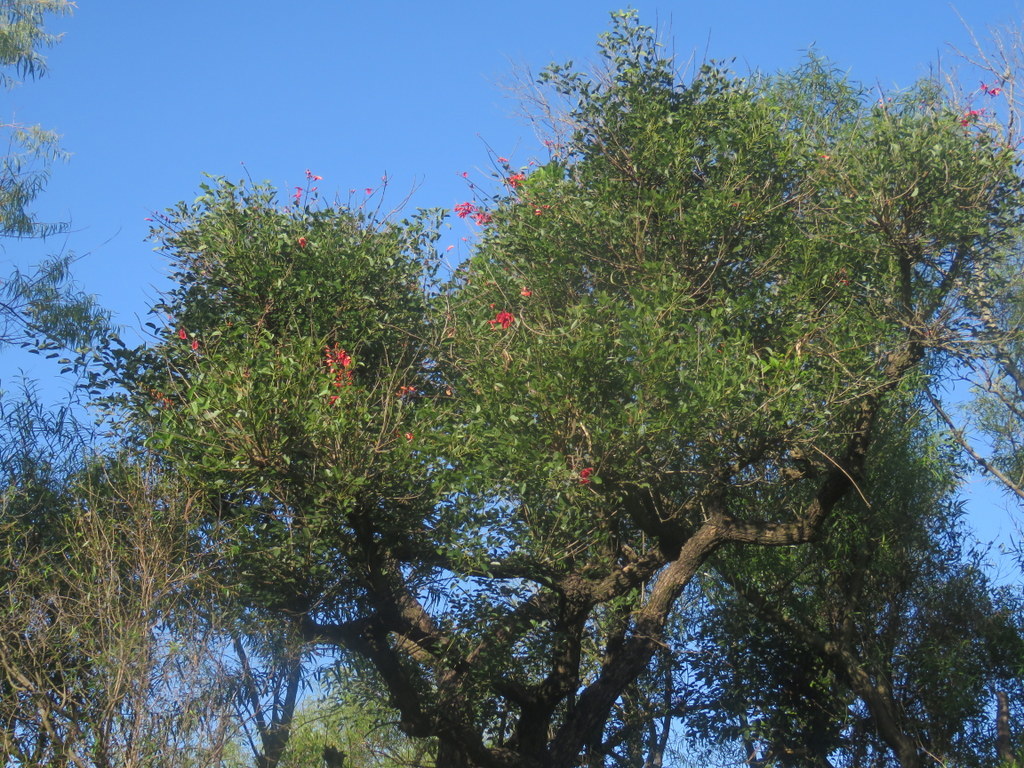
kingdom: Plantae
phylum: Tracheophyta
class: Magnoliopsida
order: Fabales
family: Fabaceae
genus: Erythrina
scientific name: Erythrina crista-galli
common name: Cockspur coral tree
